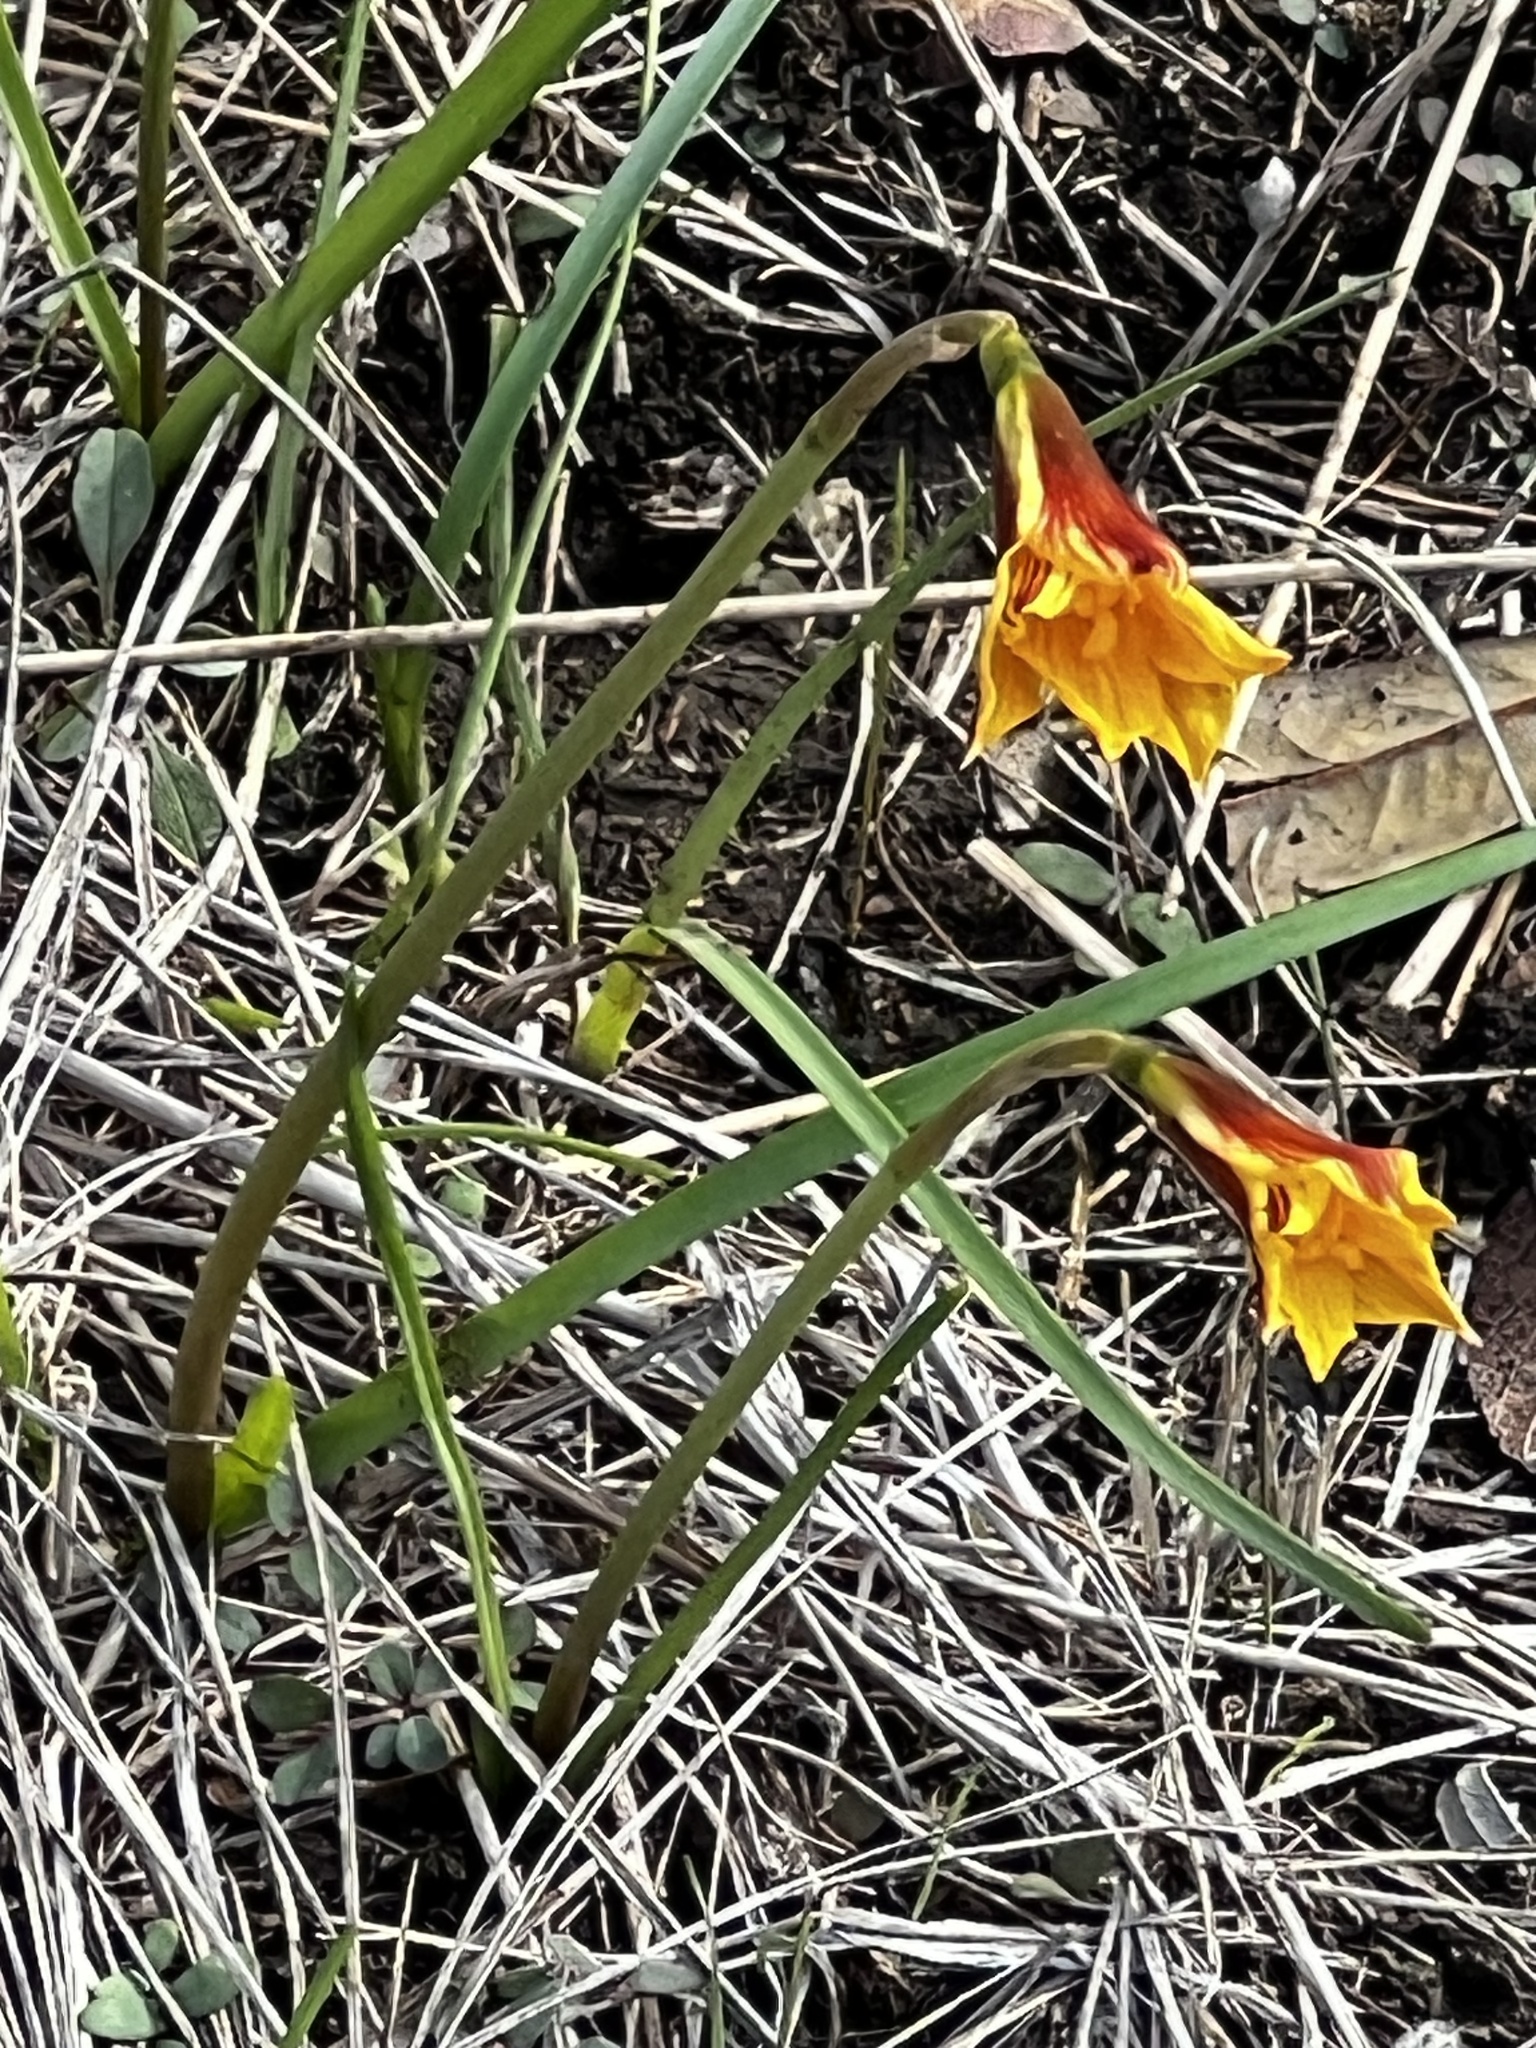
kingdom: Plantae
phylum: Tracheophyta
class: Liliopsida
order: Asparagales
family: Amaryllidaceae
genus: Zephyranthes
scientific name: Zephyranthes tubispatha
